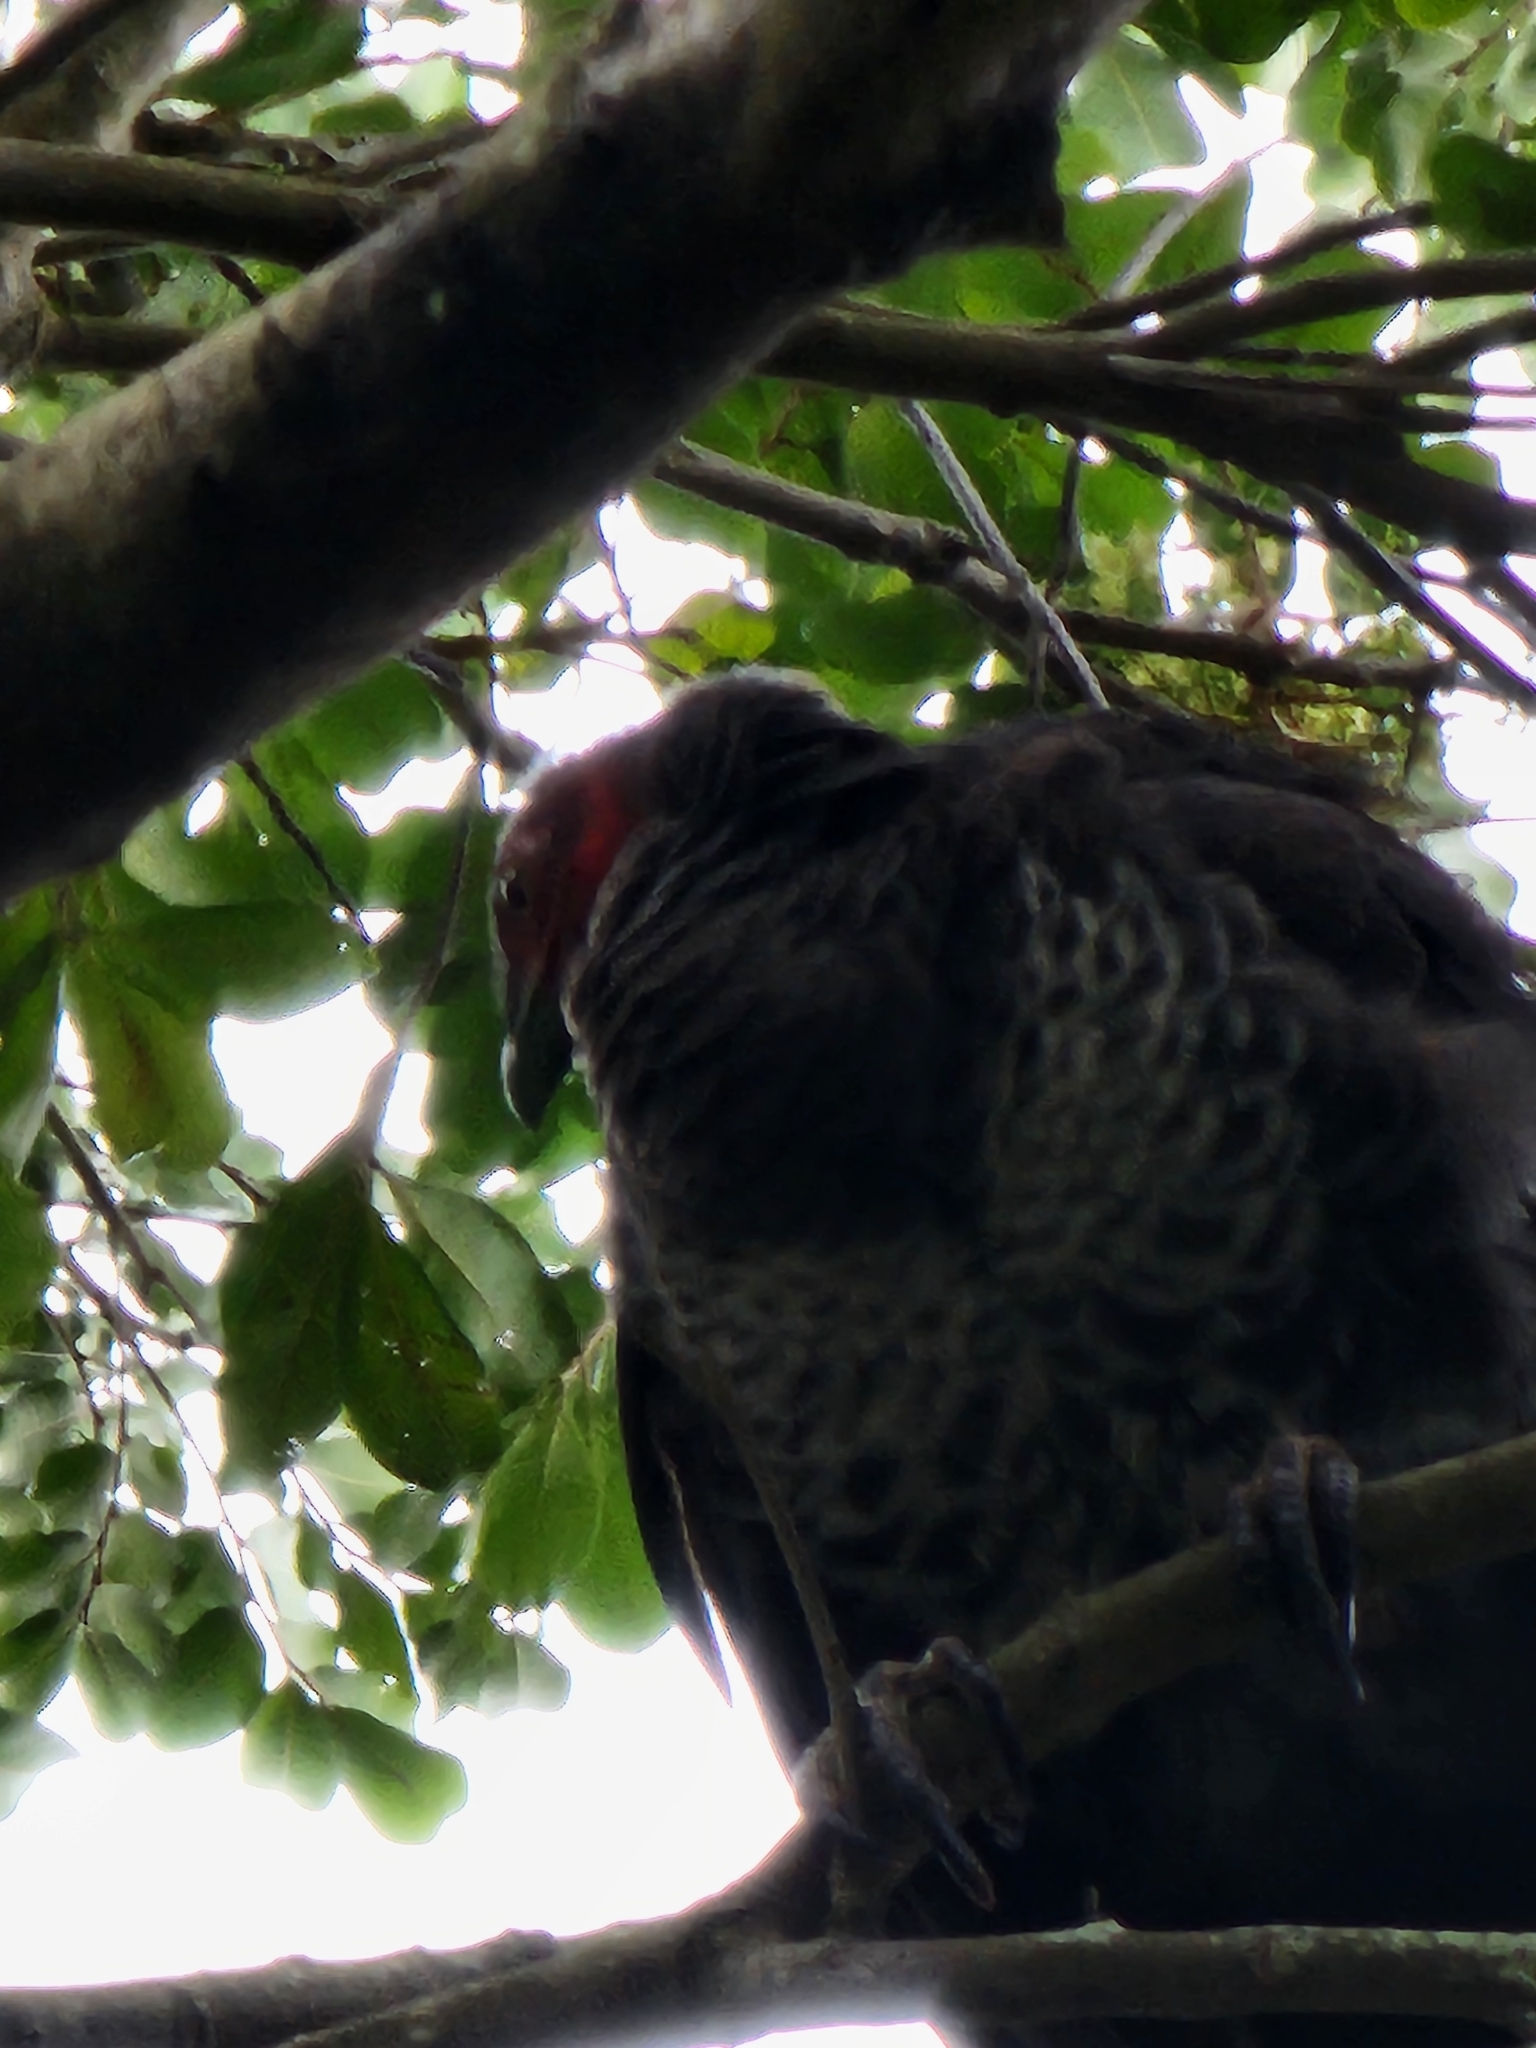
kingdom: Animalia
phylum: Chordata
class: Aves
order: Galliformes
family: Megapodiidae
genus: Alectura
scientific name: Alectura lathami
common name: Australian brushturkey
